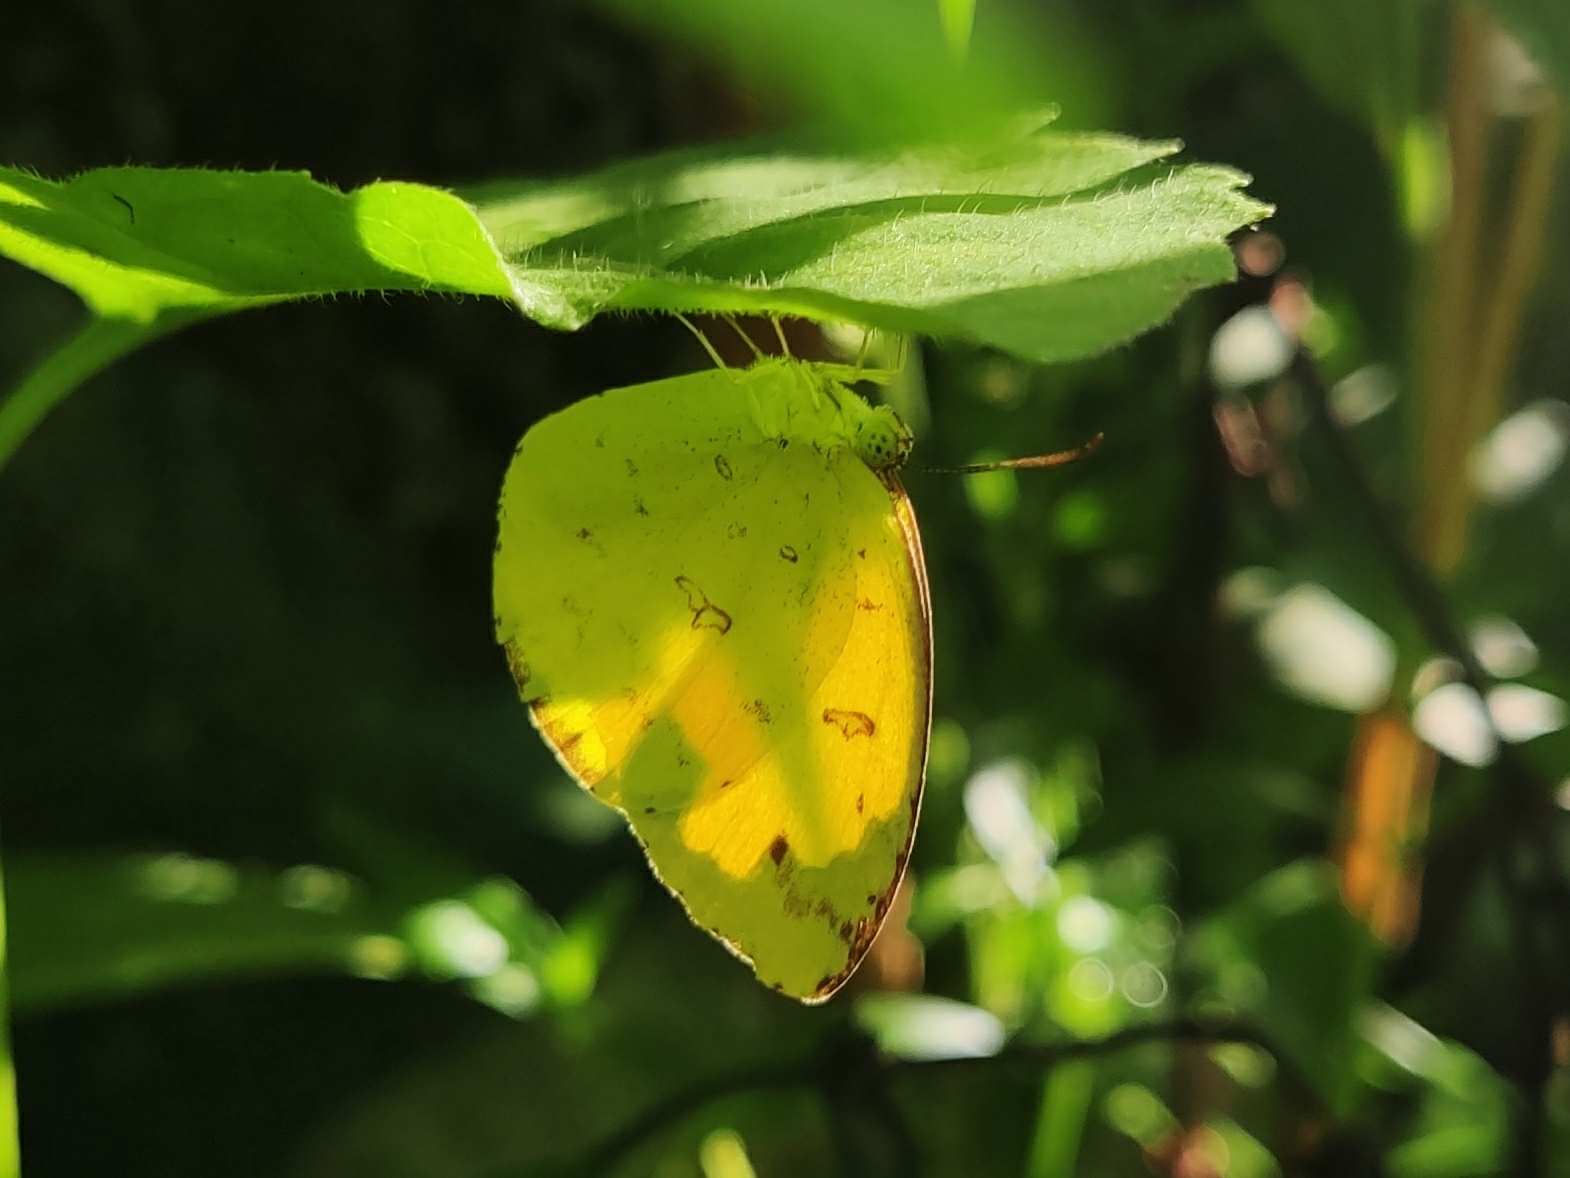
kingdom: Animalia
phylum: Arthropoda
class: Insecta
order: Lepidoptera
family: Pieridae
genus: Eurema
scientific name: Eurema hecabe
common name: Pale grass yellow
